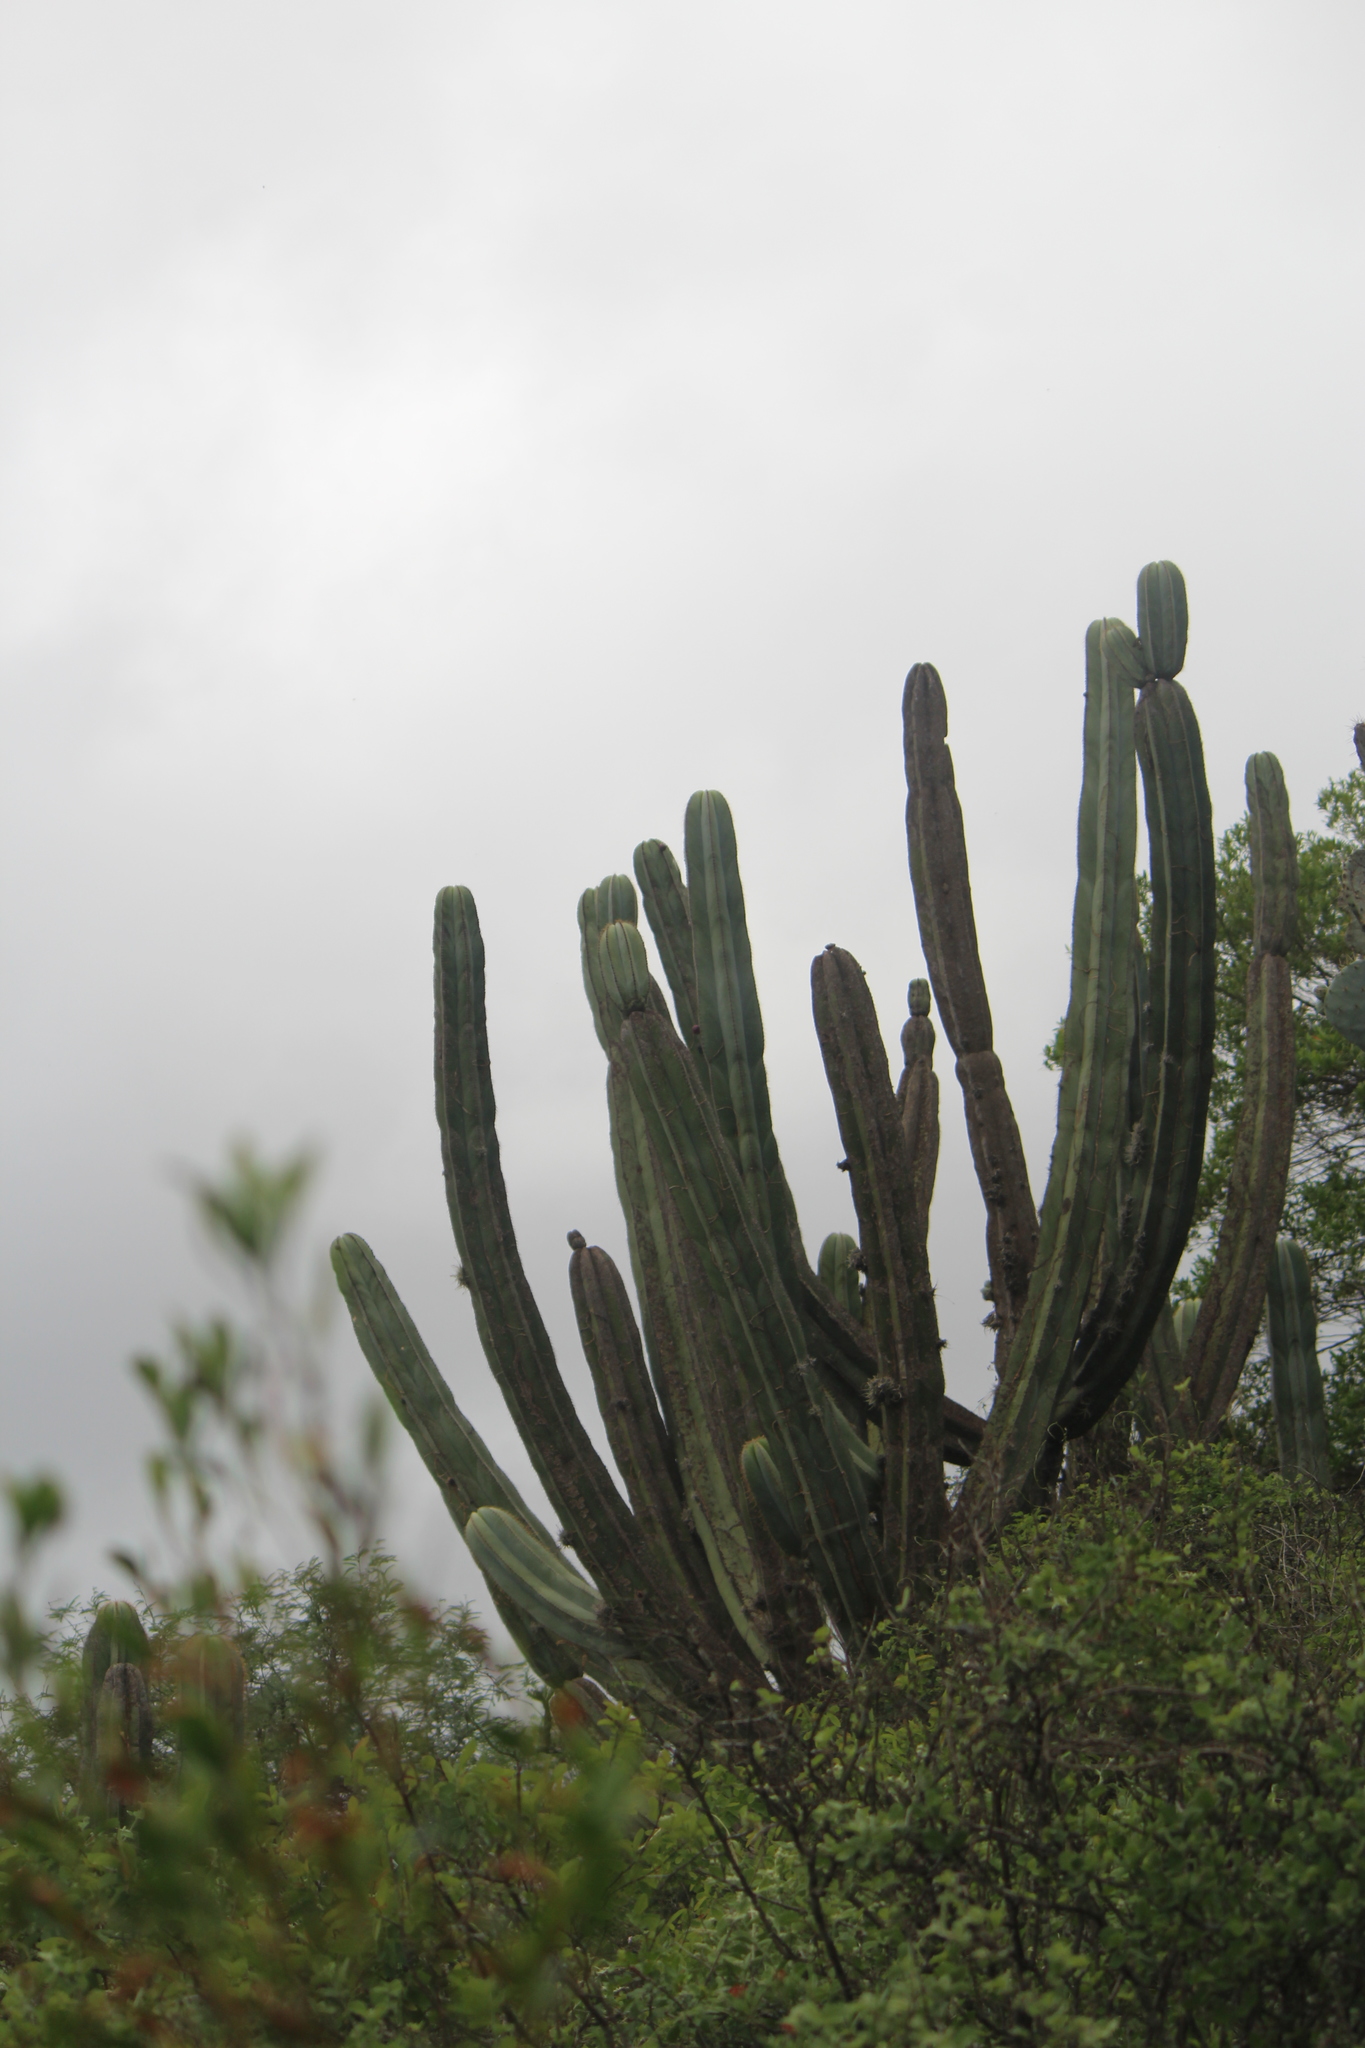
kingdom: Plantae
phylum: Tracheophyta
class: Magnoliopsida
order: Caryophyllales
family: Cactaceae
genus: Stenocereus
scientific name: Stenocereus dumortieri
